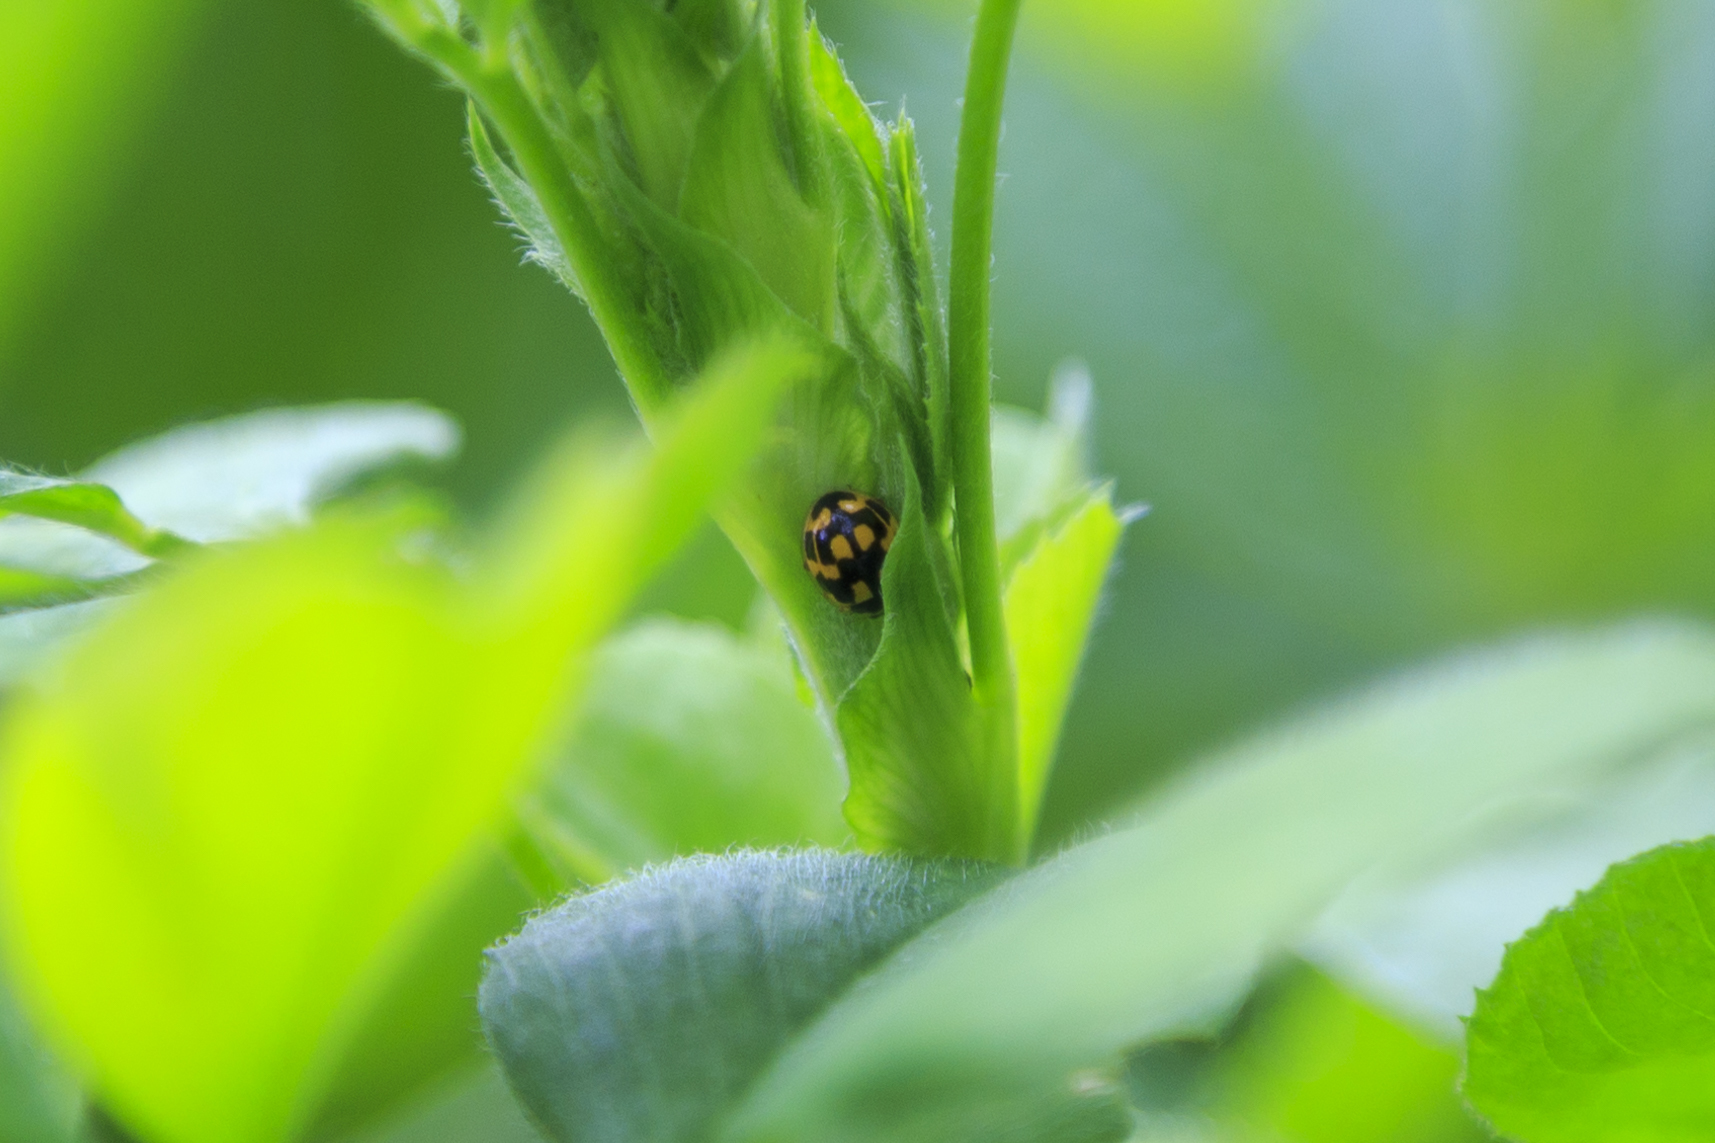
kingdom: Animalia
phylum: Arthropoda
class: Insecta
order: Coleoptera
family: Coccinellidae
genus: Propylaea
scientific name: Propylaea quatuordecimpunctata
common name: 14-spotted ladybird beetle
